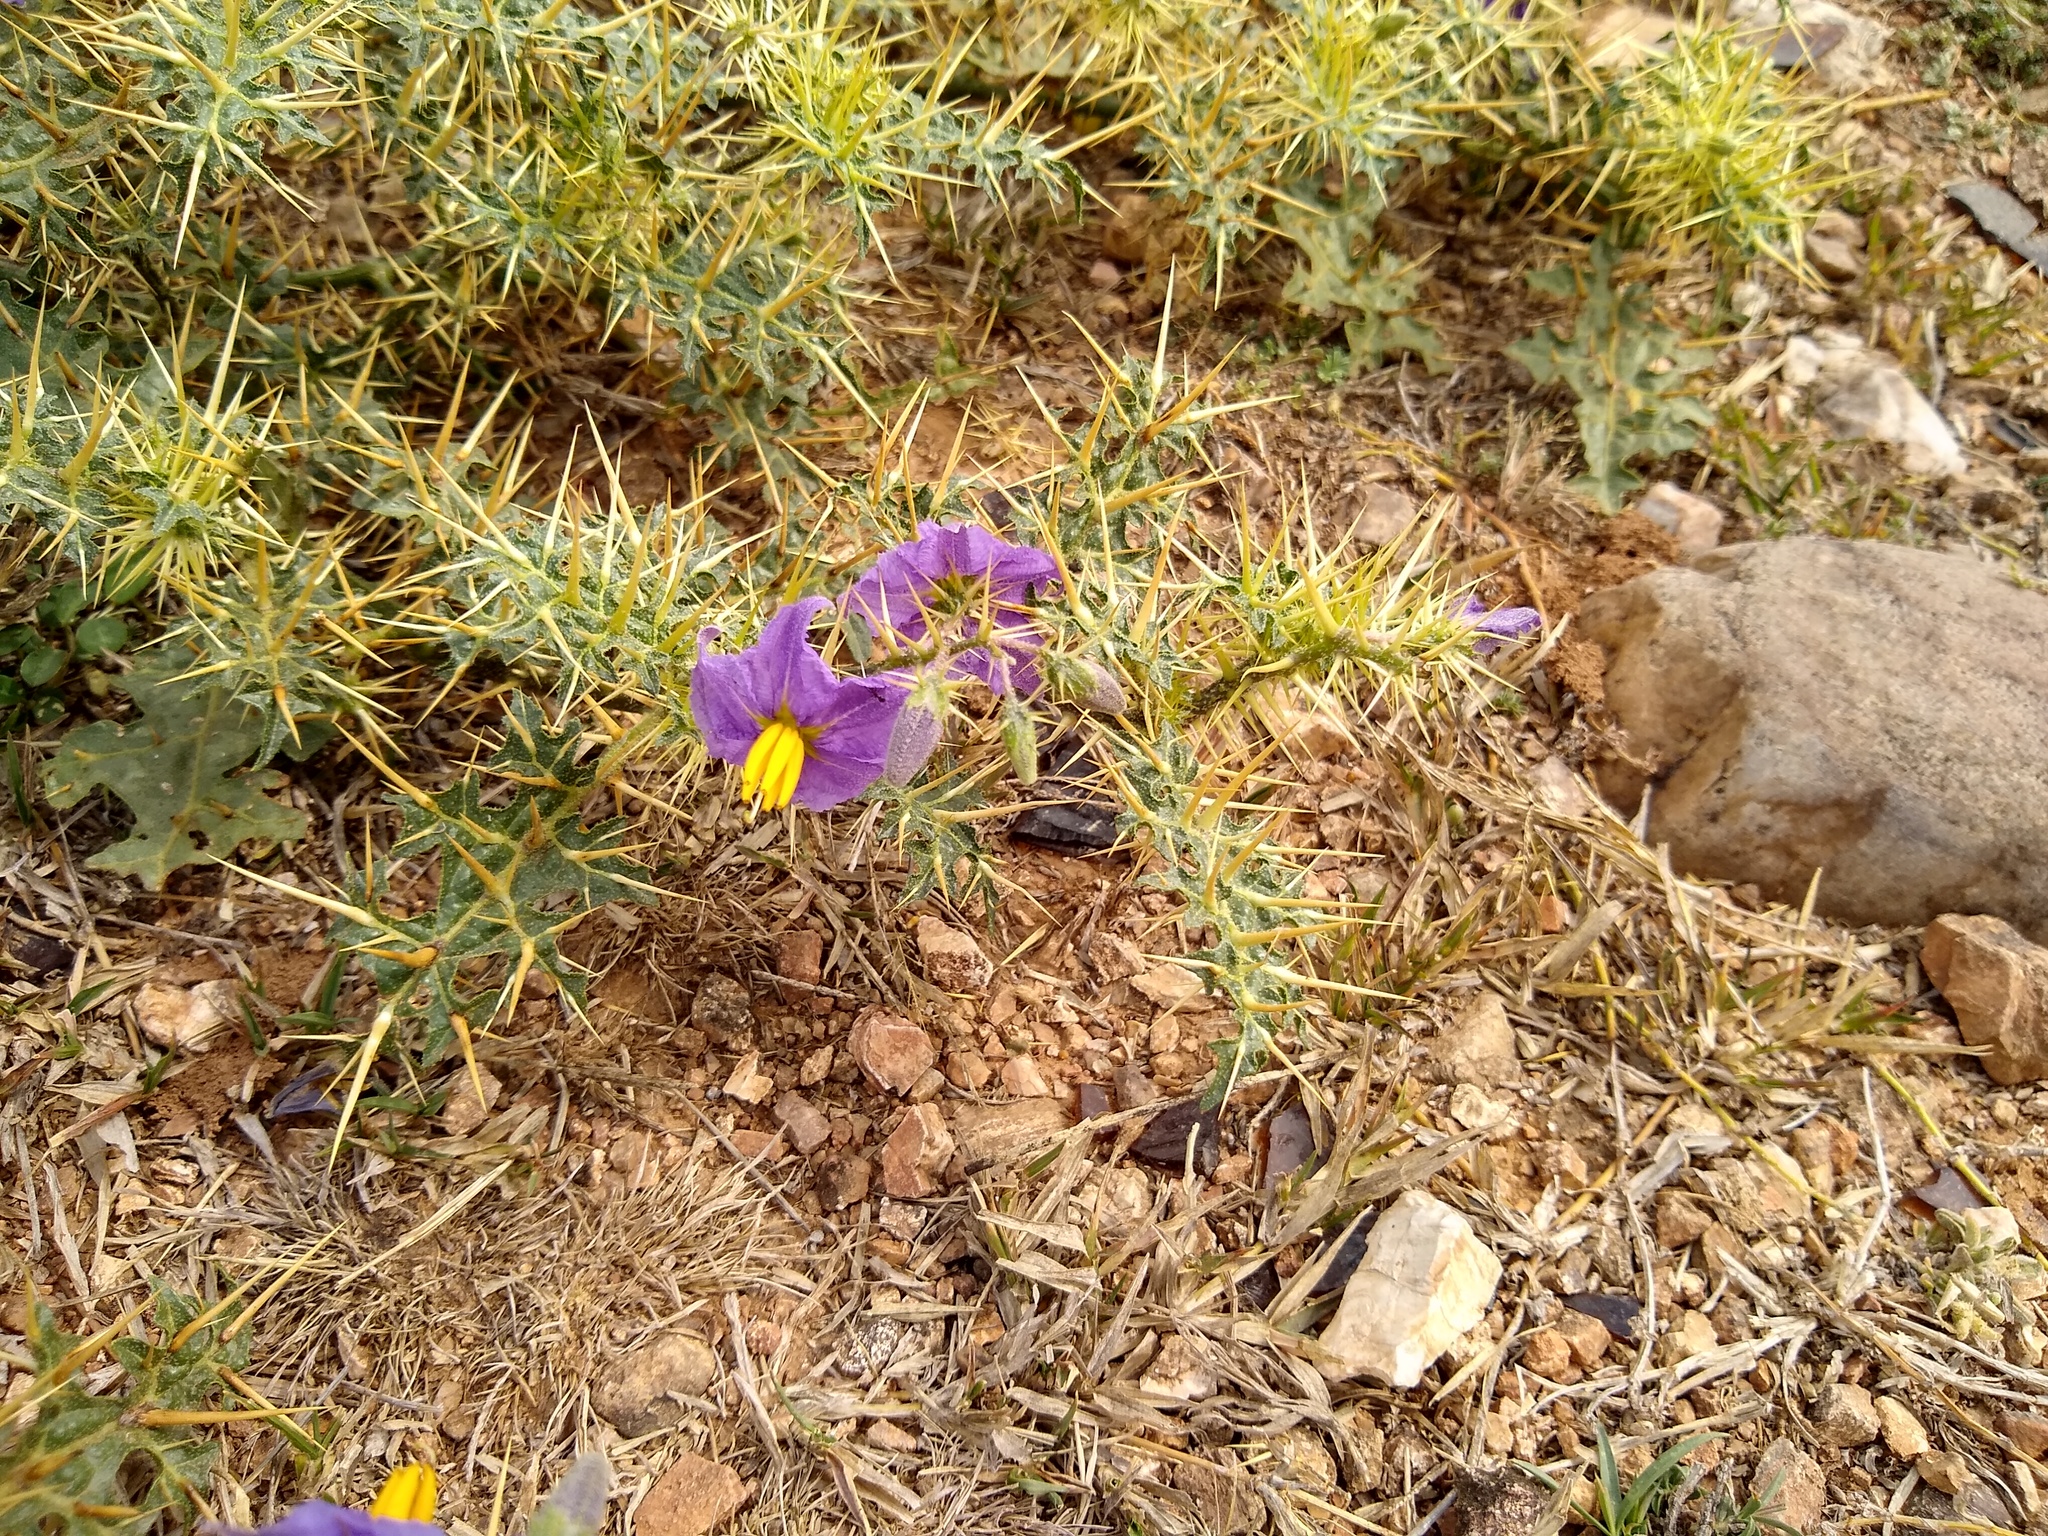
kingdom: Plantae
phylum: Tracheophyta
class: Magnoliopsida
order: Solanales
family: Solanaceae
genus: Solanum
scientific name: Solanum virginianum
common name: Surattense nightshade
